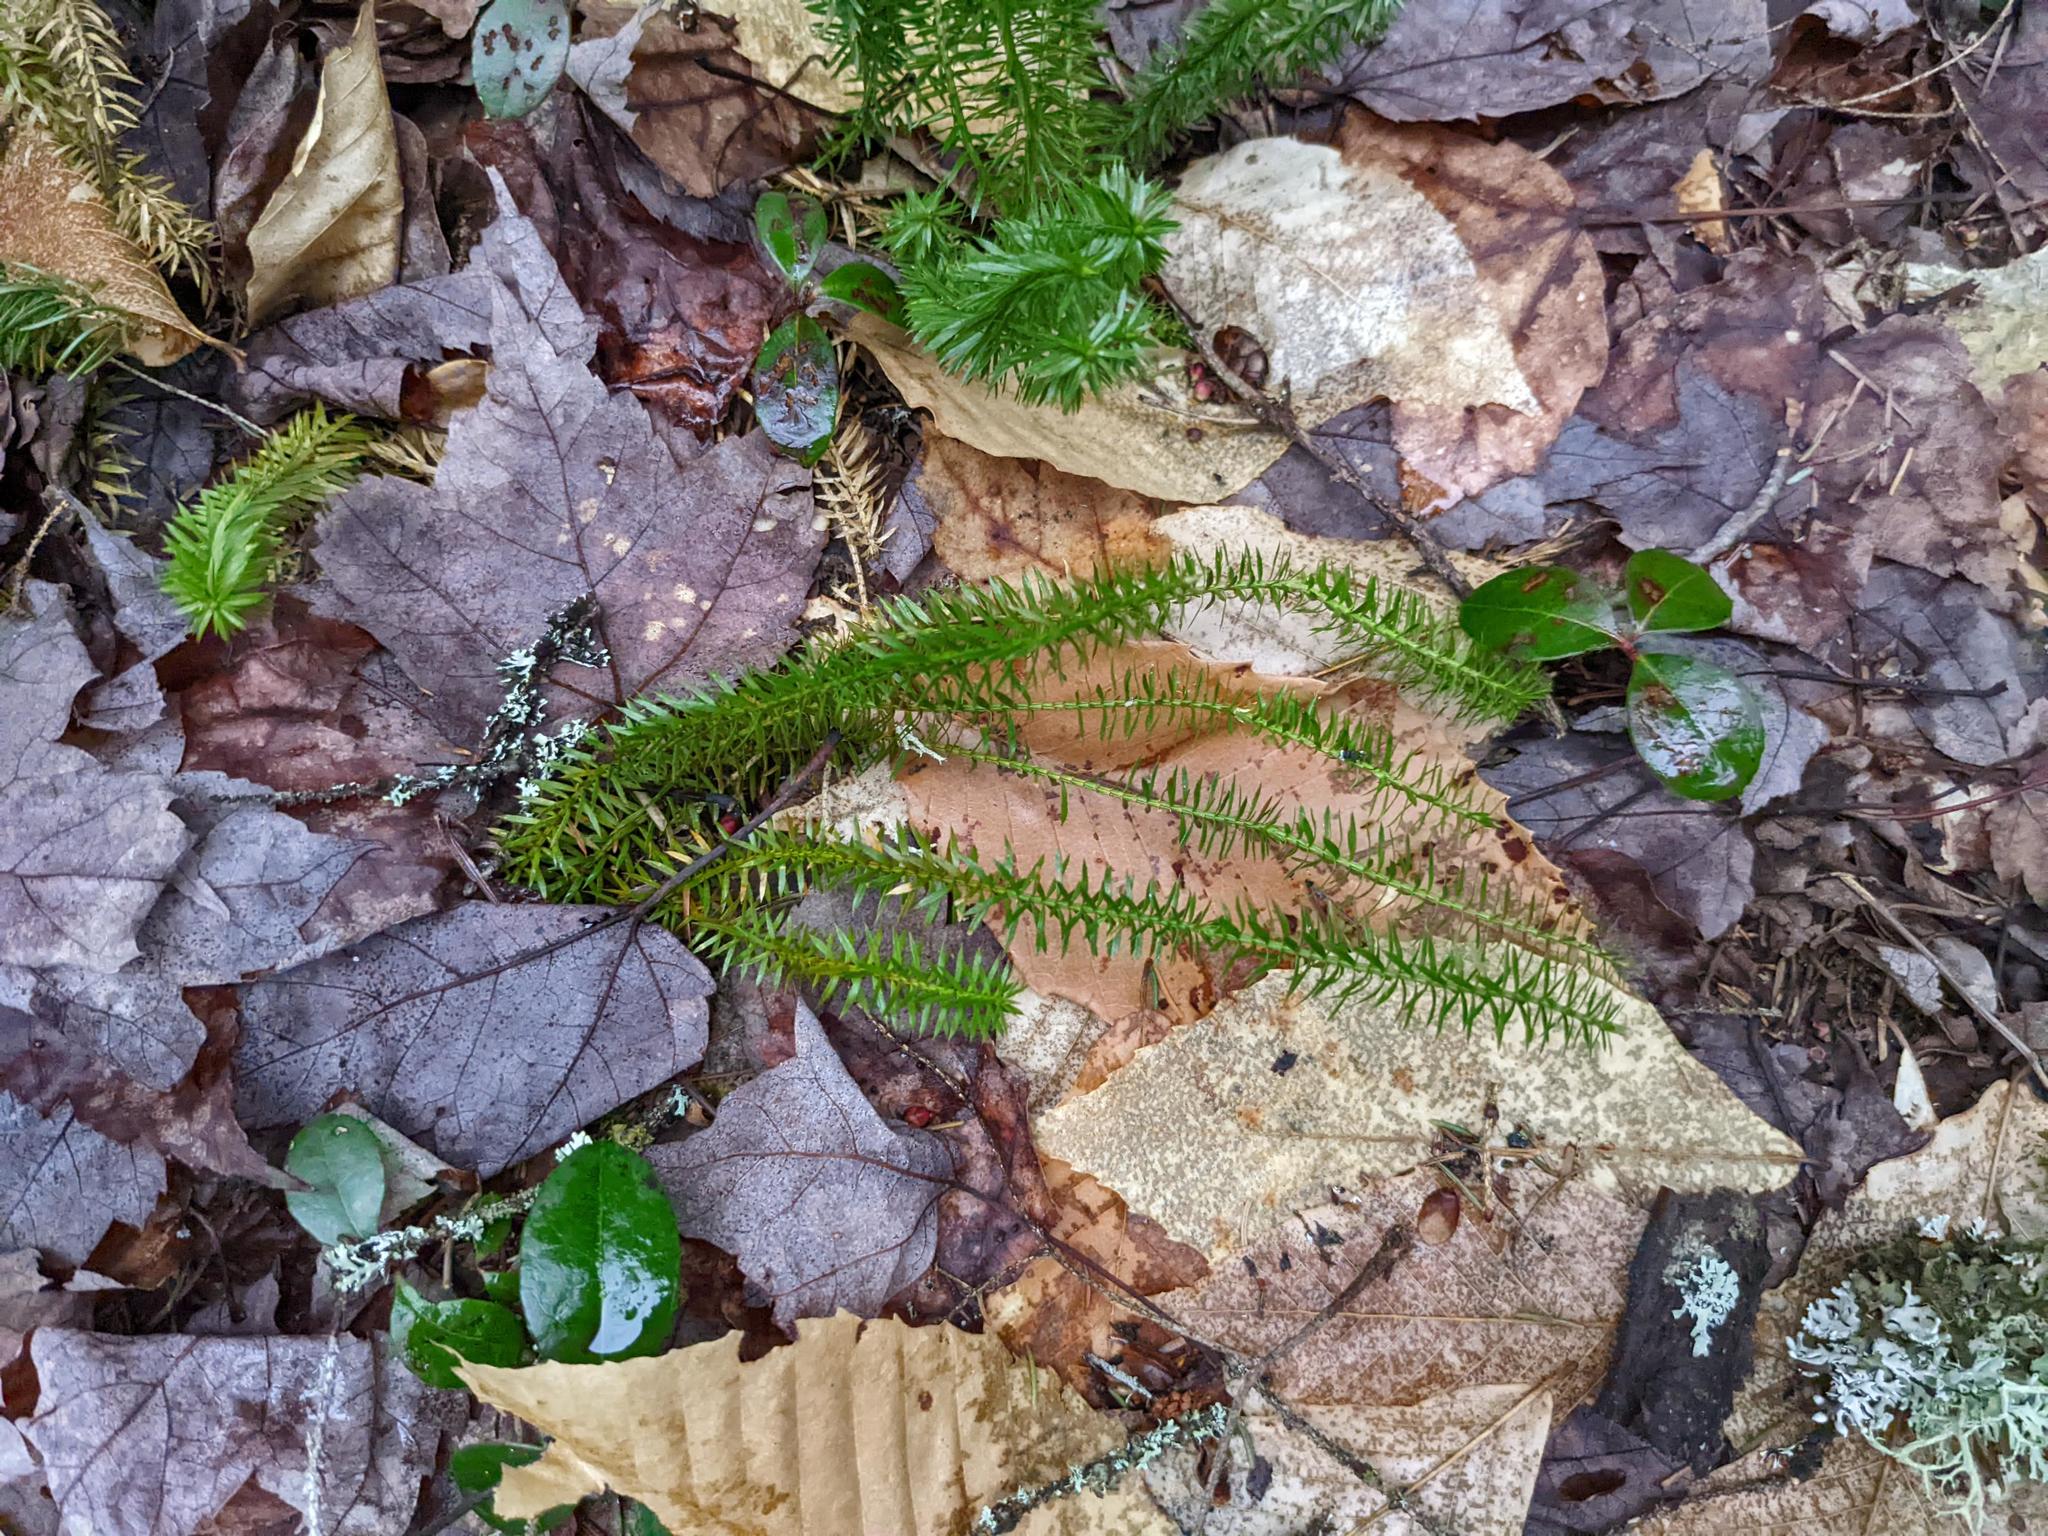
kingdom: Plantae
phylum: Tracheophyta
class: Lycopodiopsida
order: Lycopodiales
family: Lycopodiaceae
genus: Spinulum
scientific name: Spinulum annotinum
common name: Interrupted club-moss
